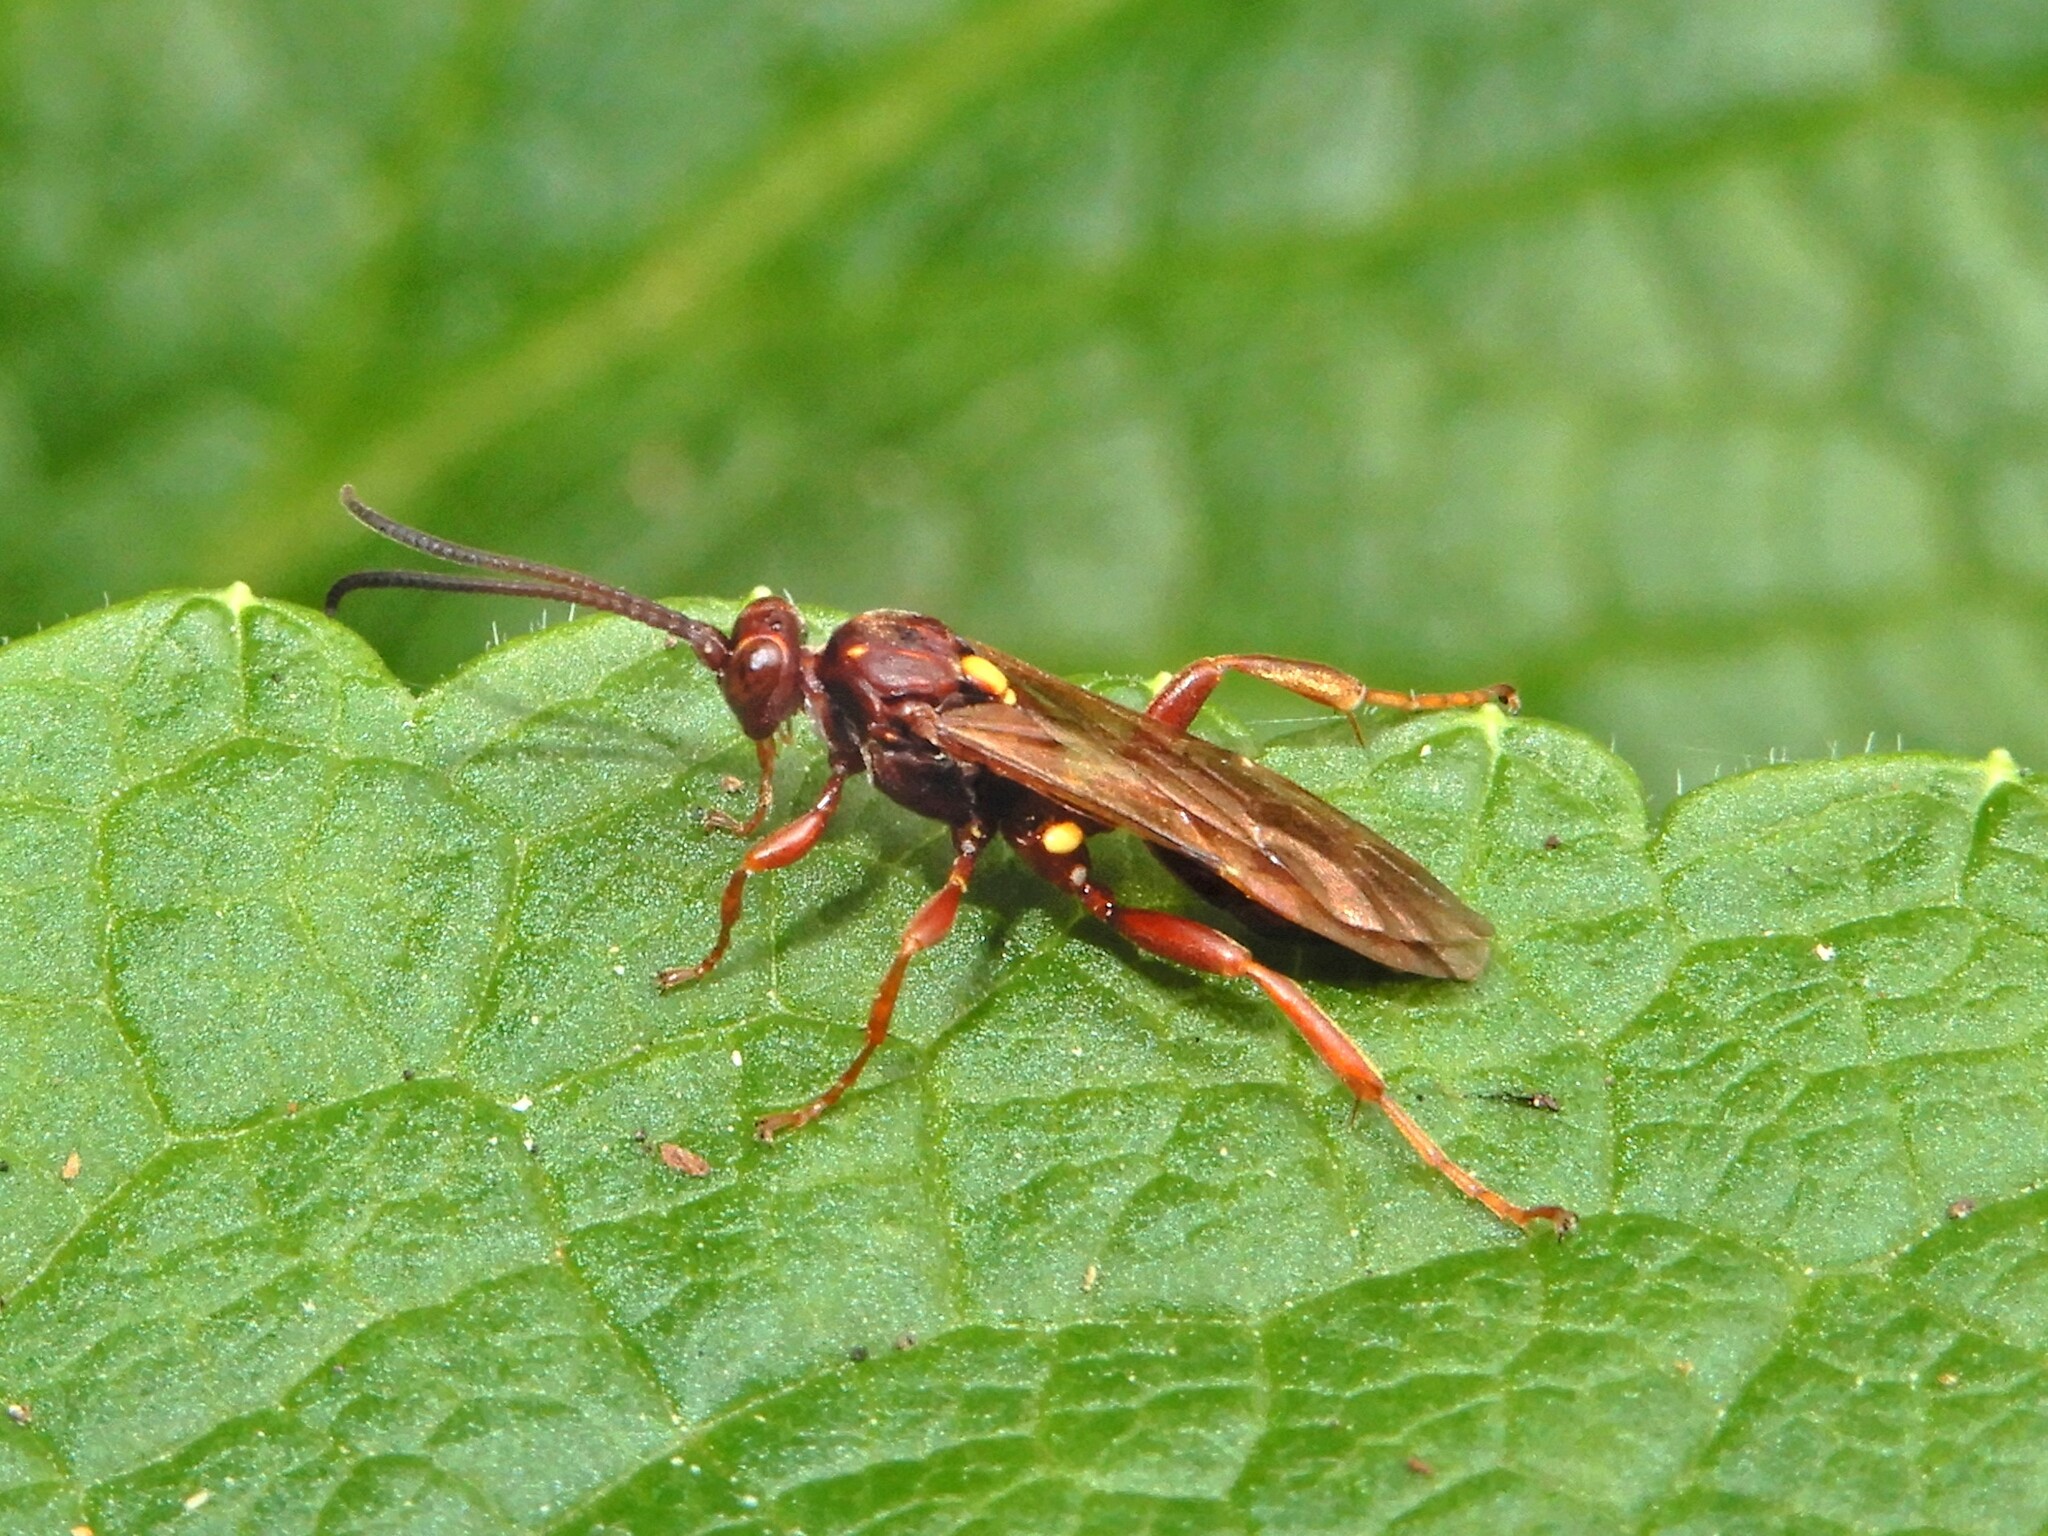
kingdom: Animalia
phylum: Arthropoda
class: Insecta
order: Hymenoptera
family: Ichneumonidae
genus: Aucklandella
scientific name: Aucklandella minuta
